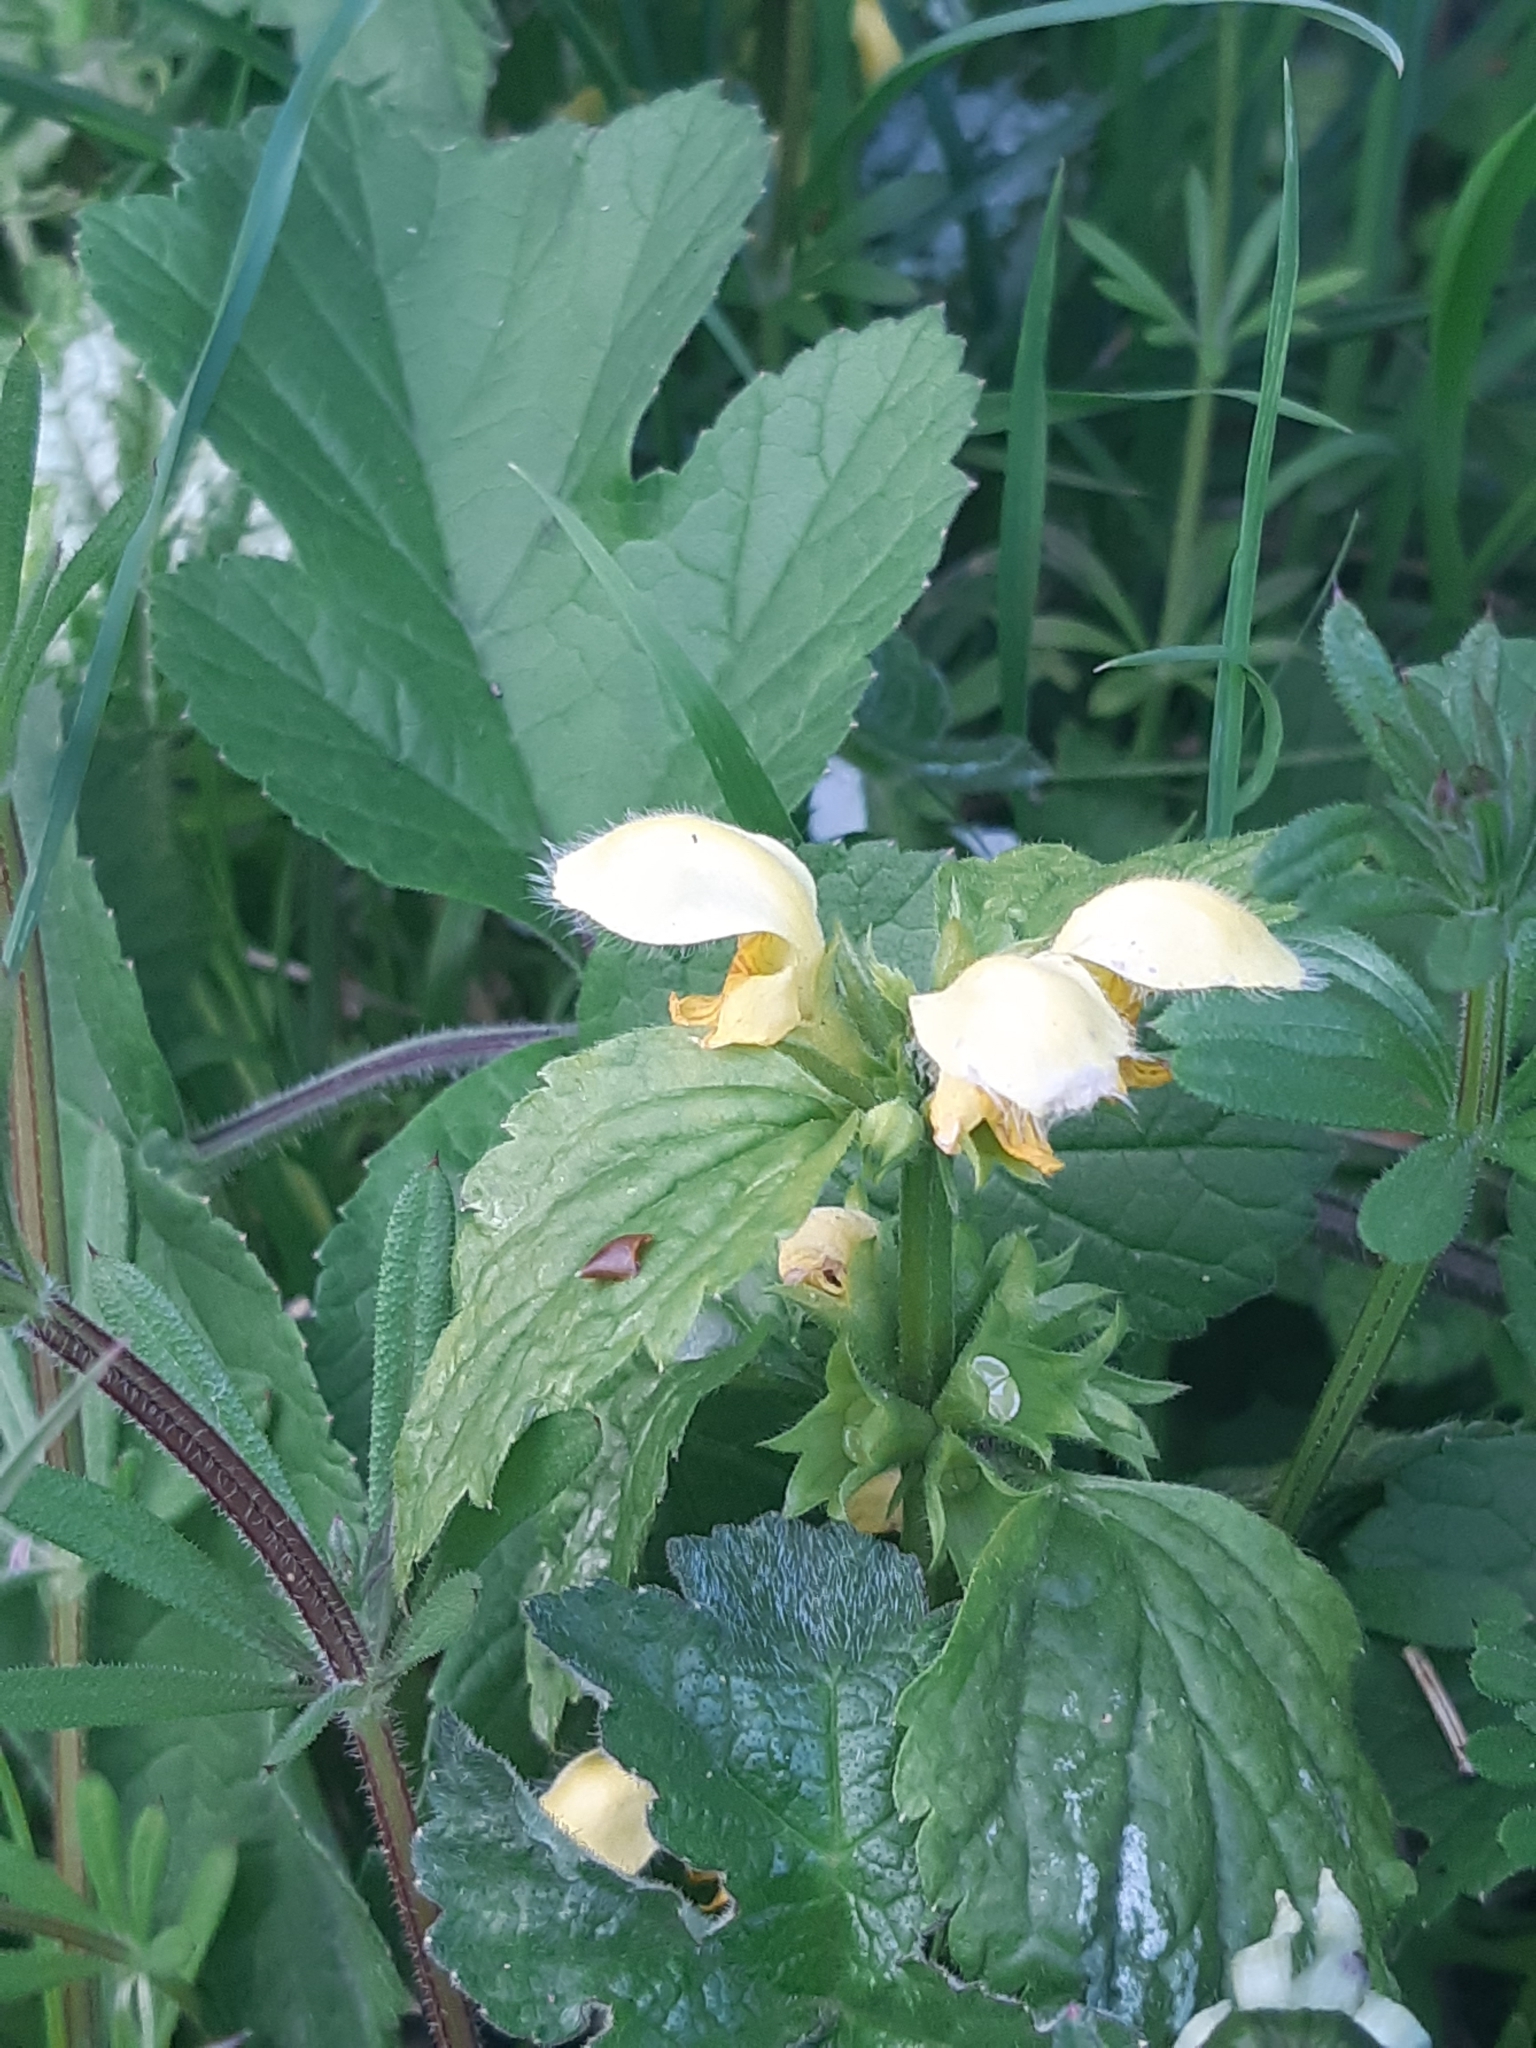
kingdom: Plantae
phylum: Tracheophyta
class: Magnoliopsida
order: Lamiales
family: Lamiaceae
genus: Lamium
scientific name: Lamium galeobdolon
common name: Yellow archangel
